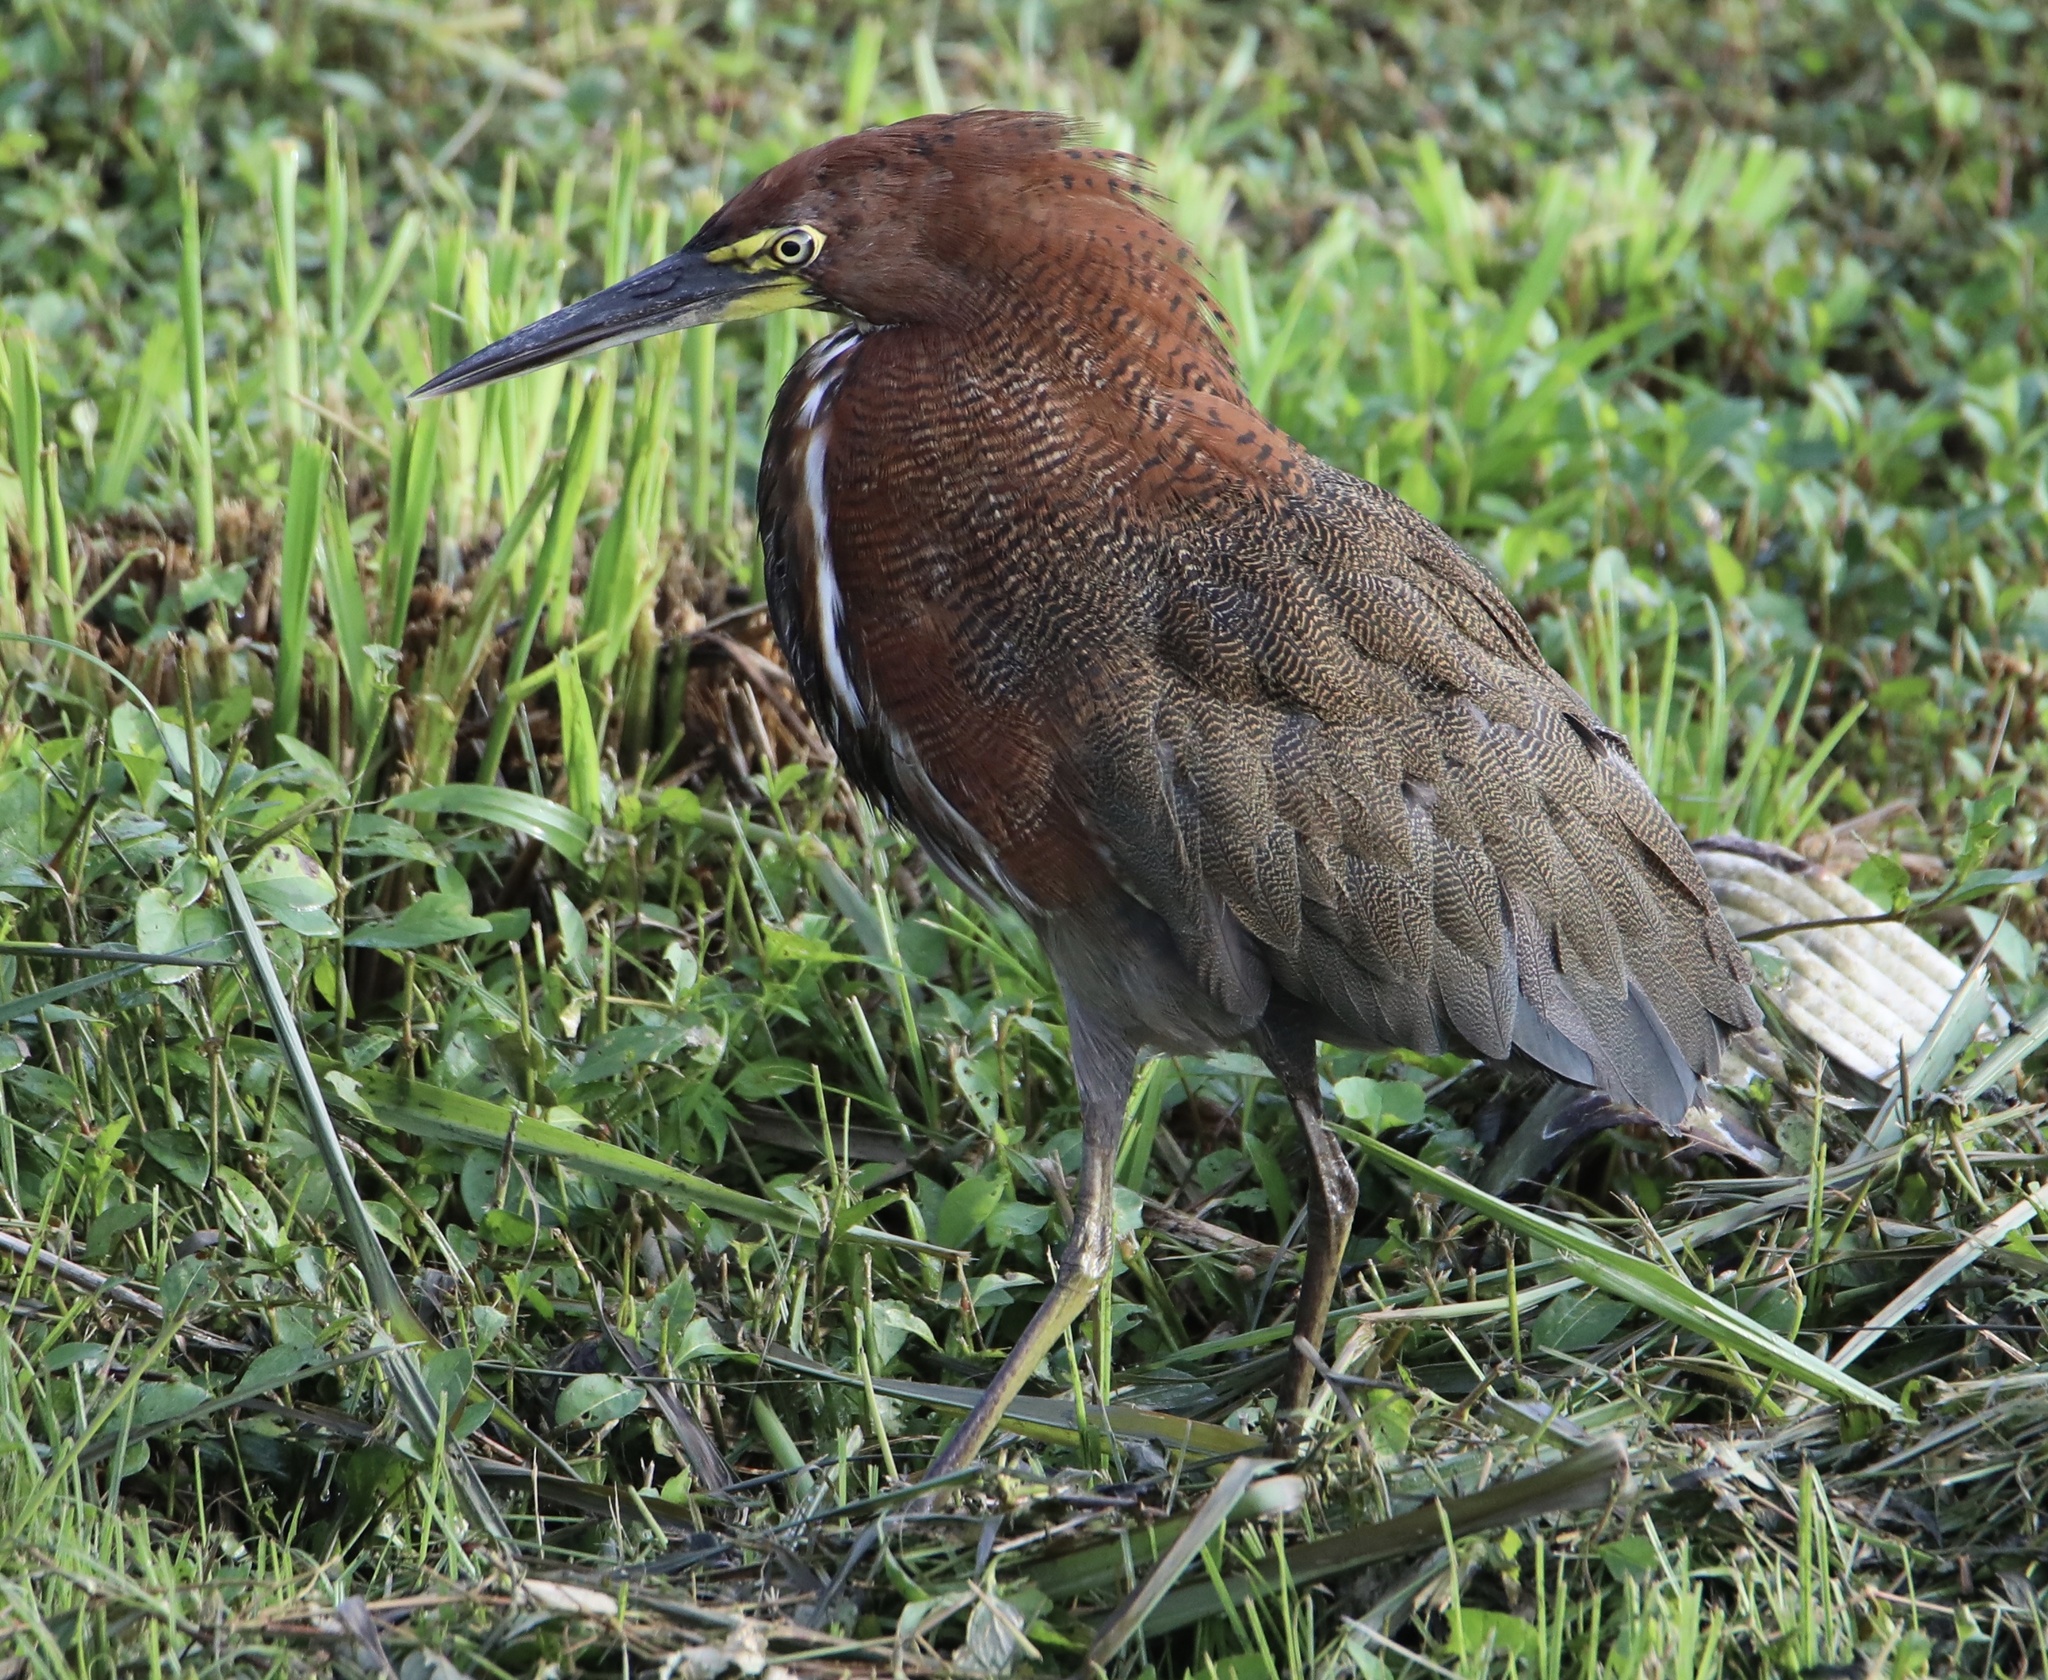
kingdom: Animalia
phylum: Chordata
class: Aves
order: Pelecaniformes
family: Ardeidae
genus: Tigrisoma
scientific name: Tigrisoma lineatum
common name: Rufescent tiger-heron
